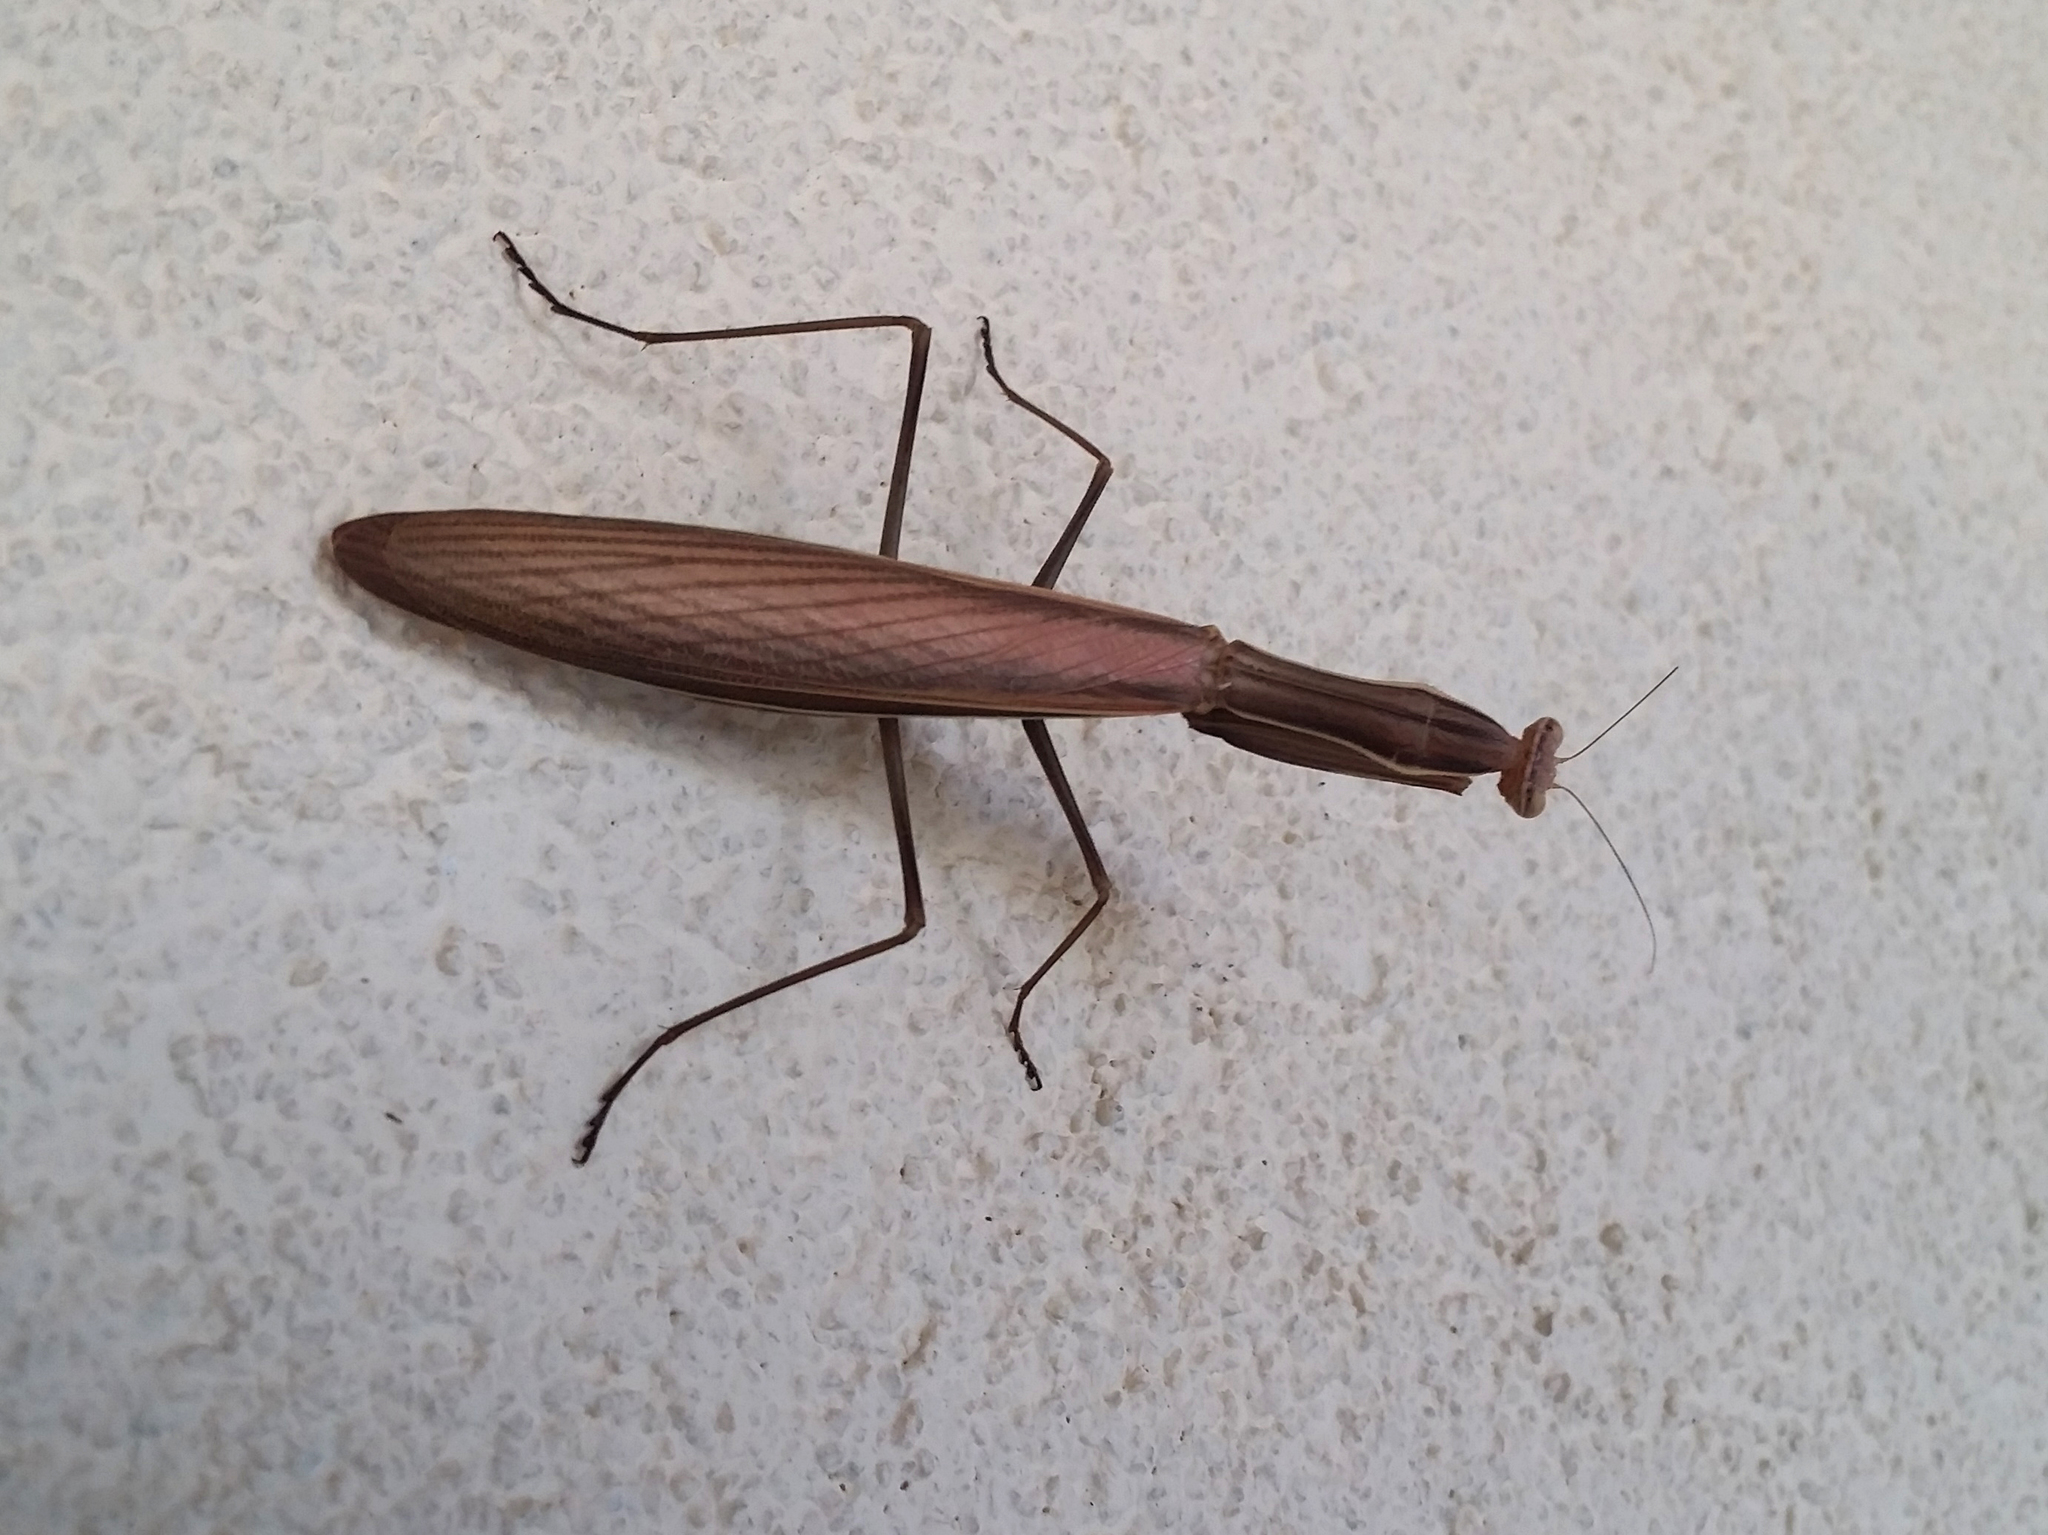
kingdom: Animalia
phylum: Arthropoda
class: Insecta
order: Mantodea
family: Mantidae
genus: Mantis
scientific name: Mantis religiosa
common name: Praying mantis
